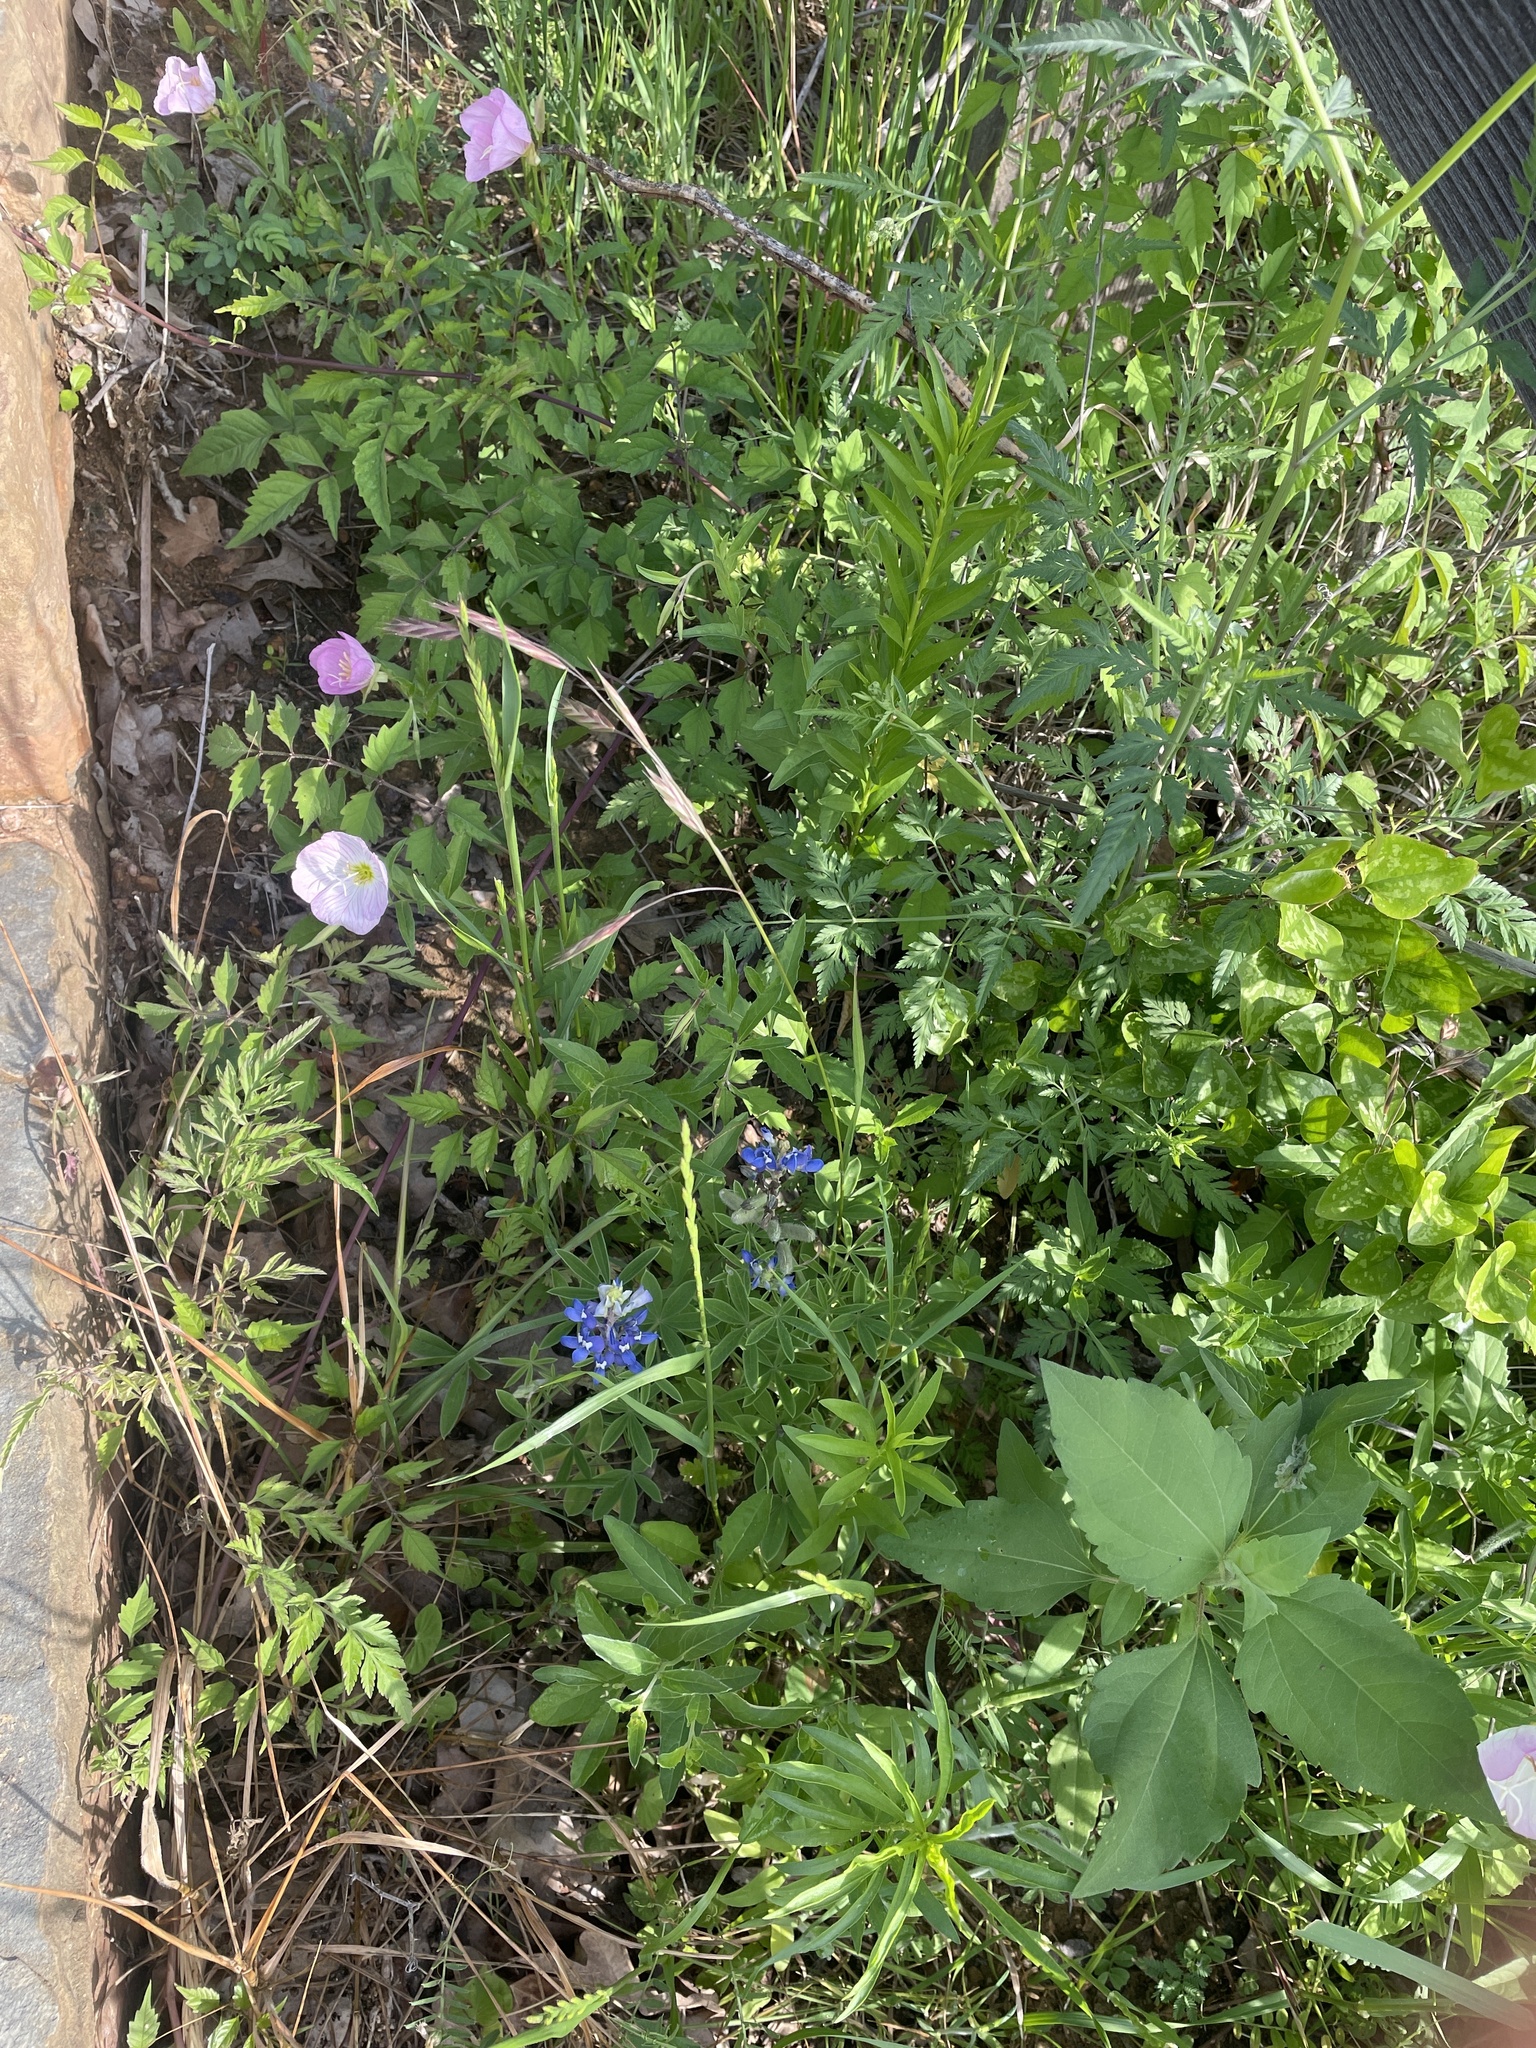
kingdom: Plantae
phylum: Tracheophyta
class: Liliopsida
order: Poales
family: Poaceae
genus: Bromus
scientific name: Bromus catharticus
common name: Rescuegrass
